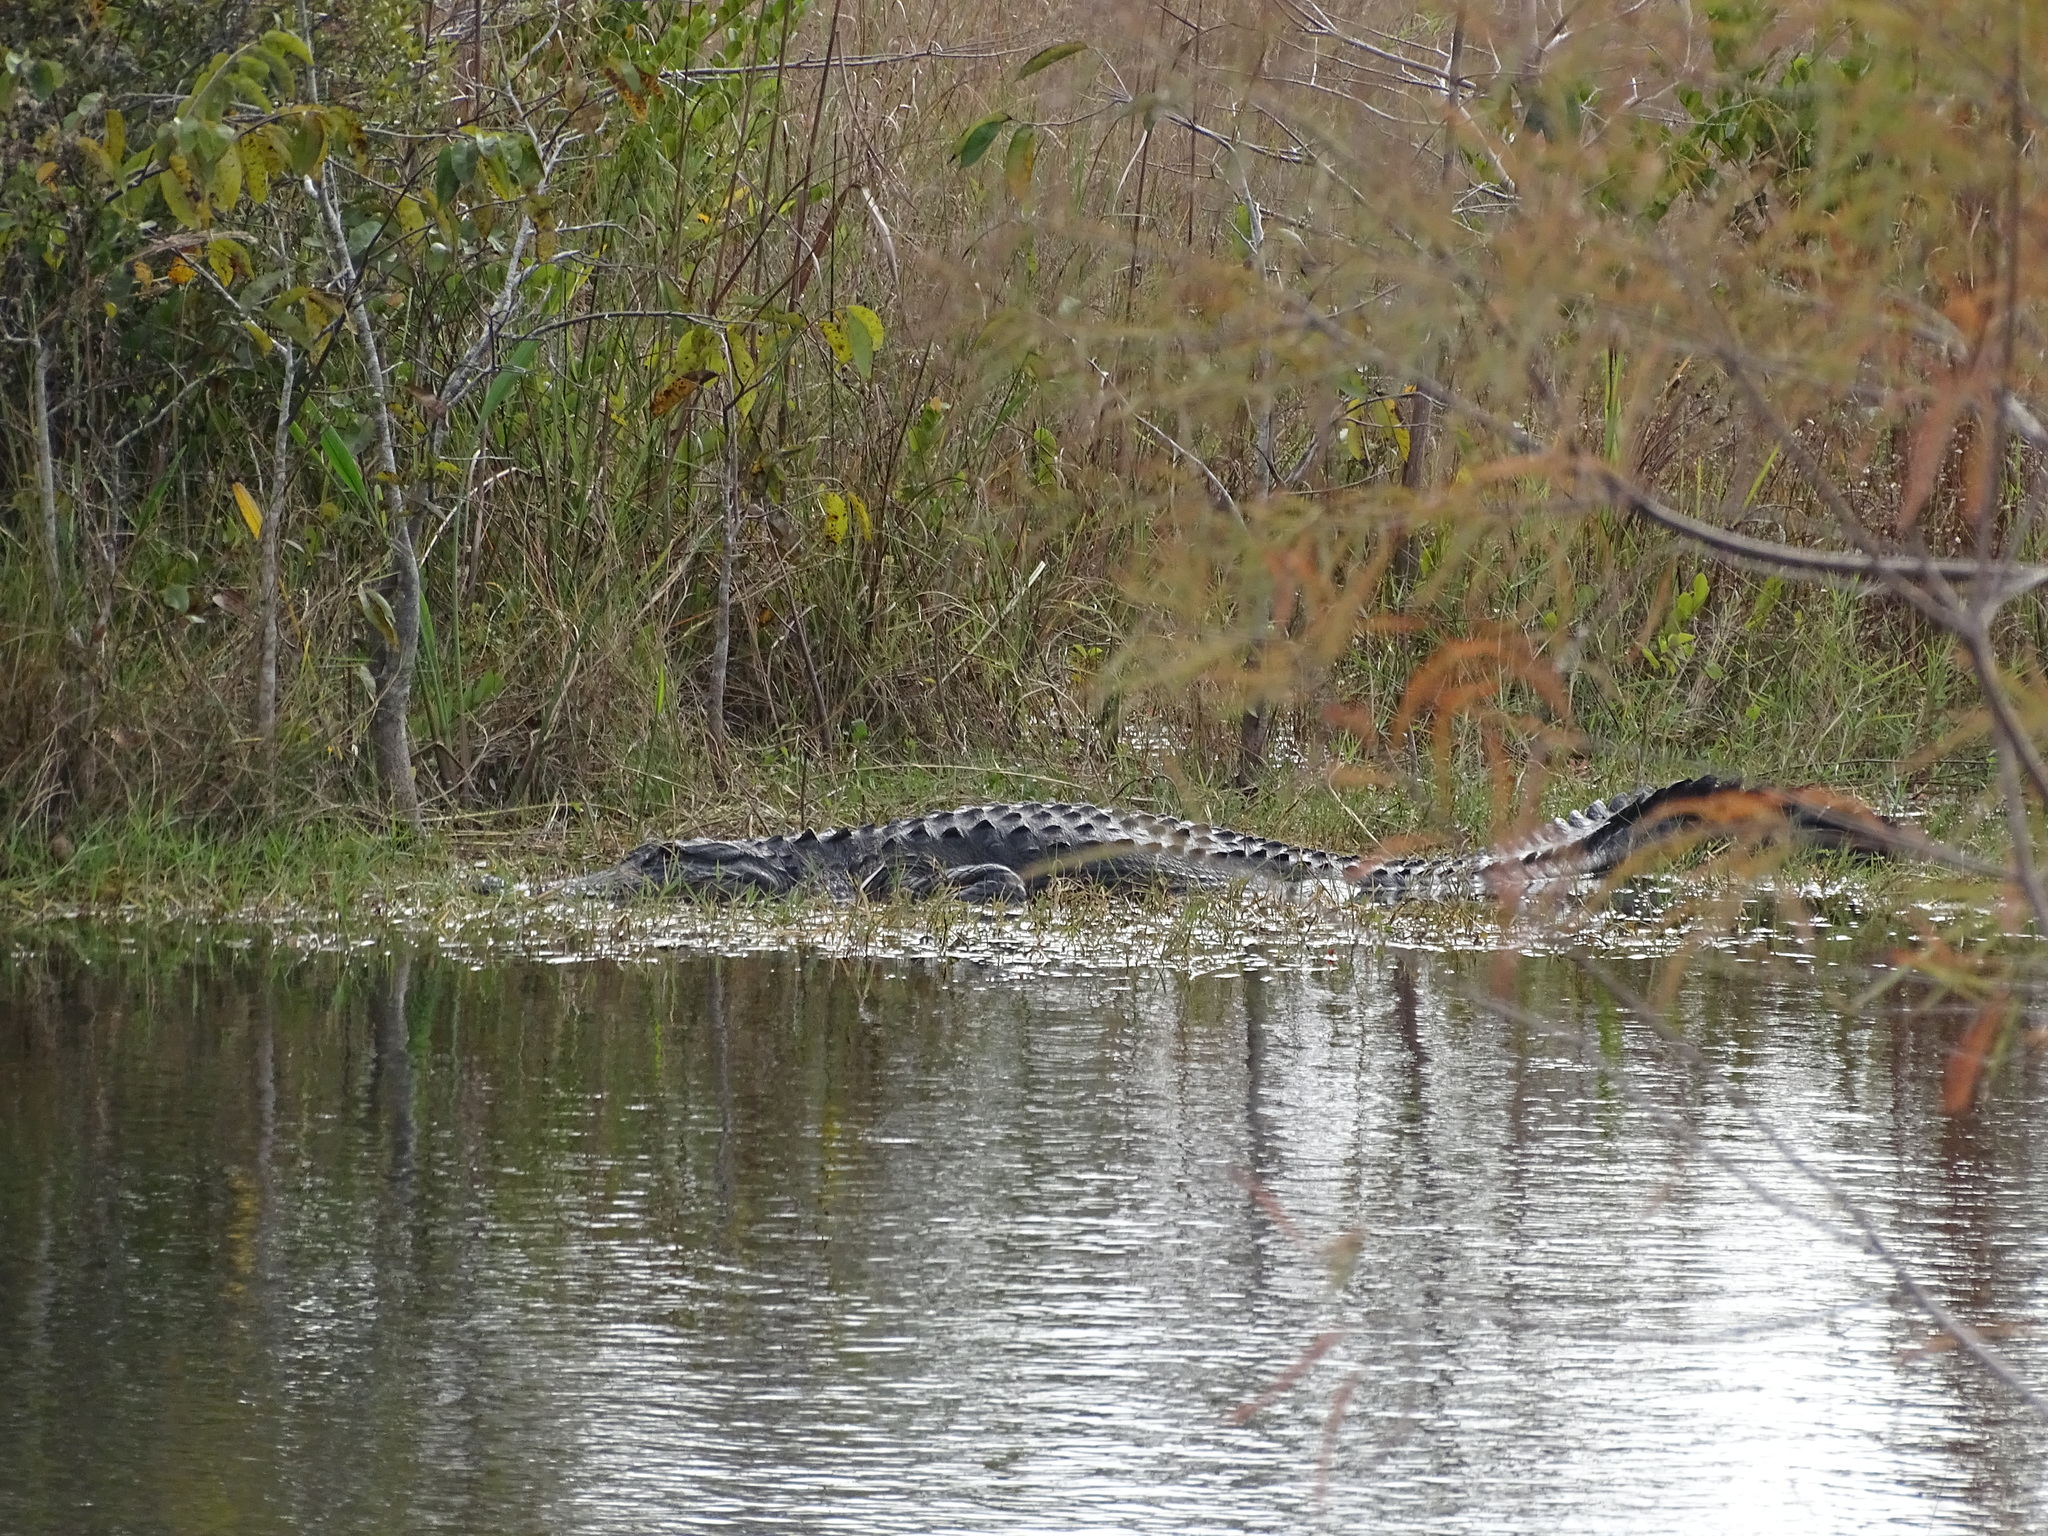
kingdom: Animalia
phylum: Chordata
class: Crocodylia
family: Alligatoridae
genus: Alligator
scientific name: Alligator mississippiensis
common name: American alligator
